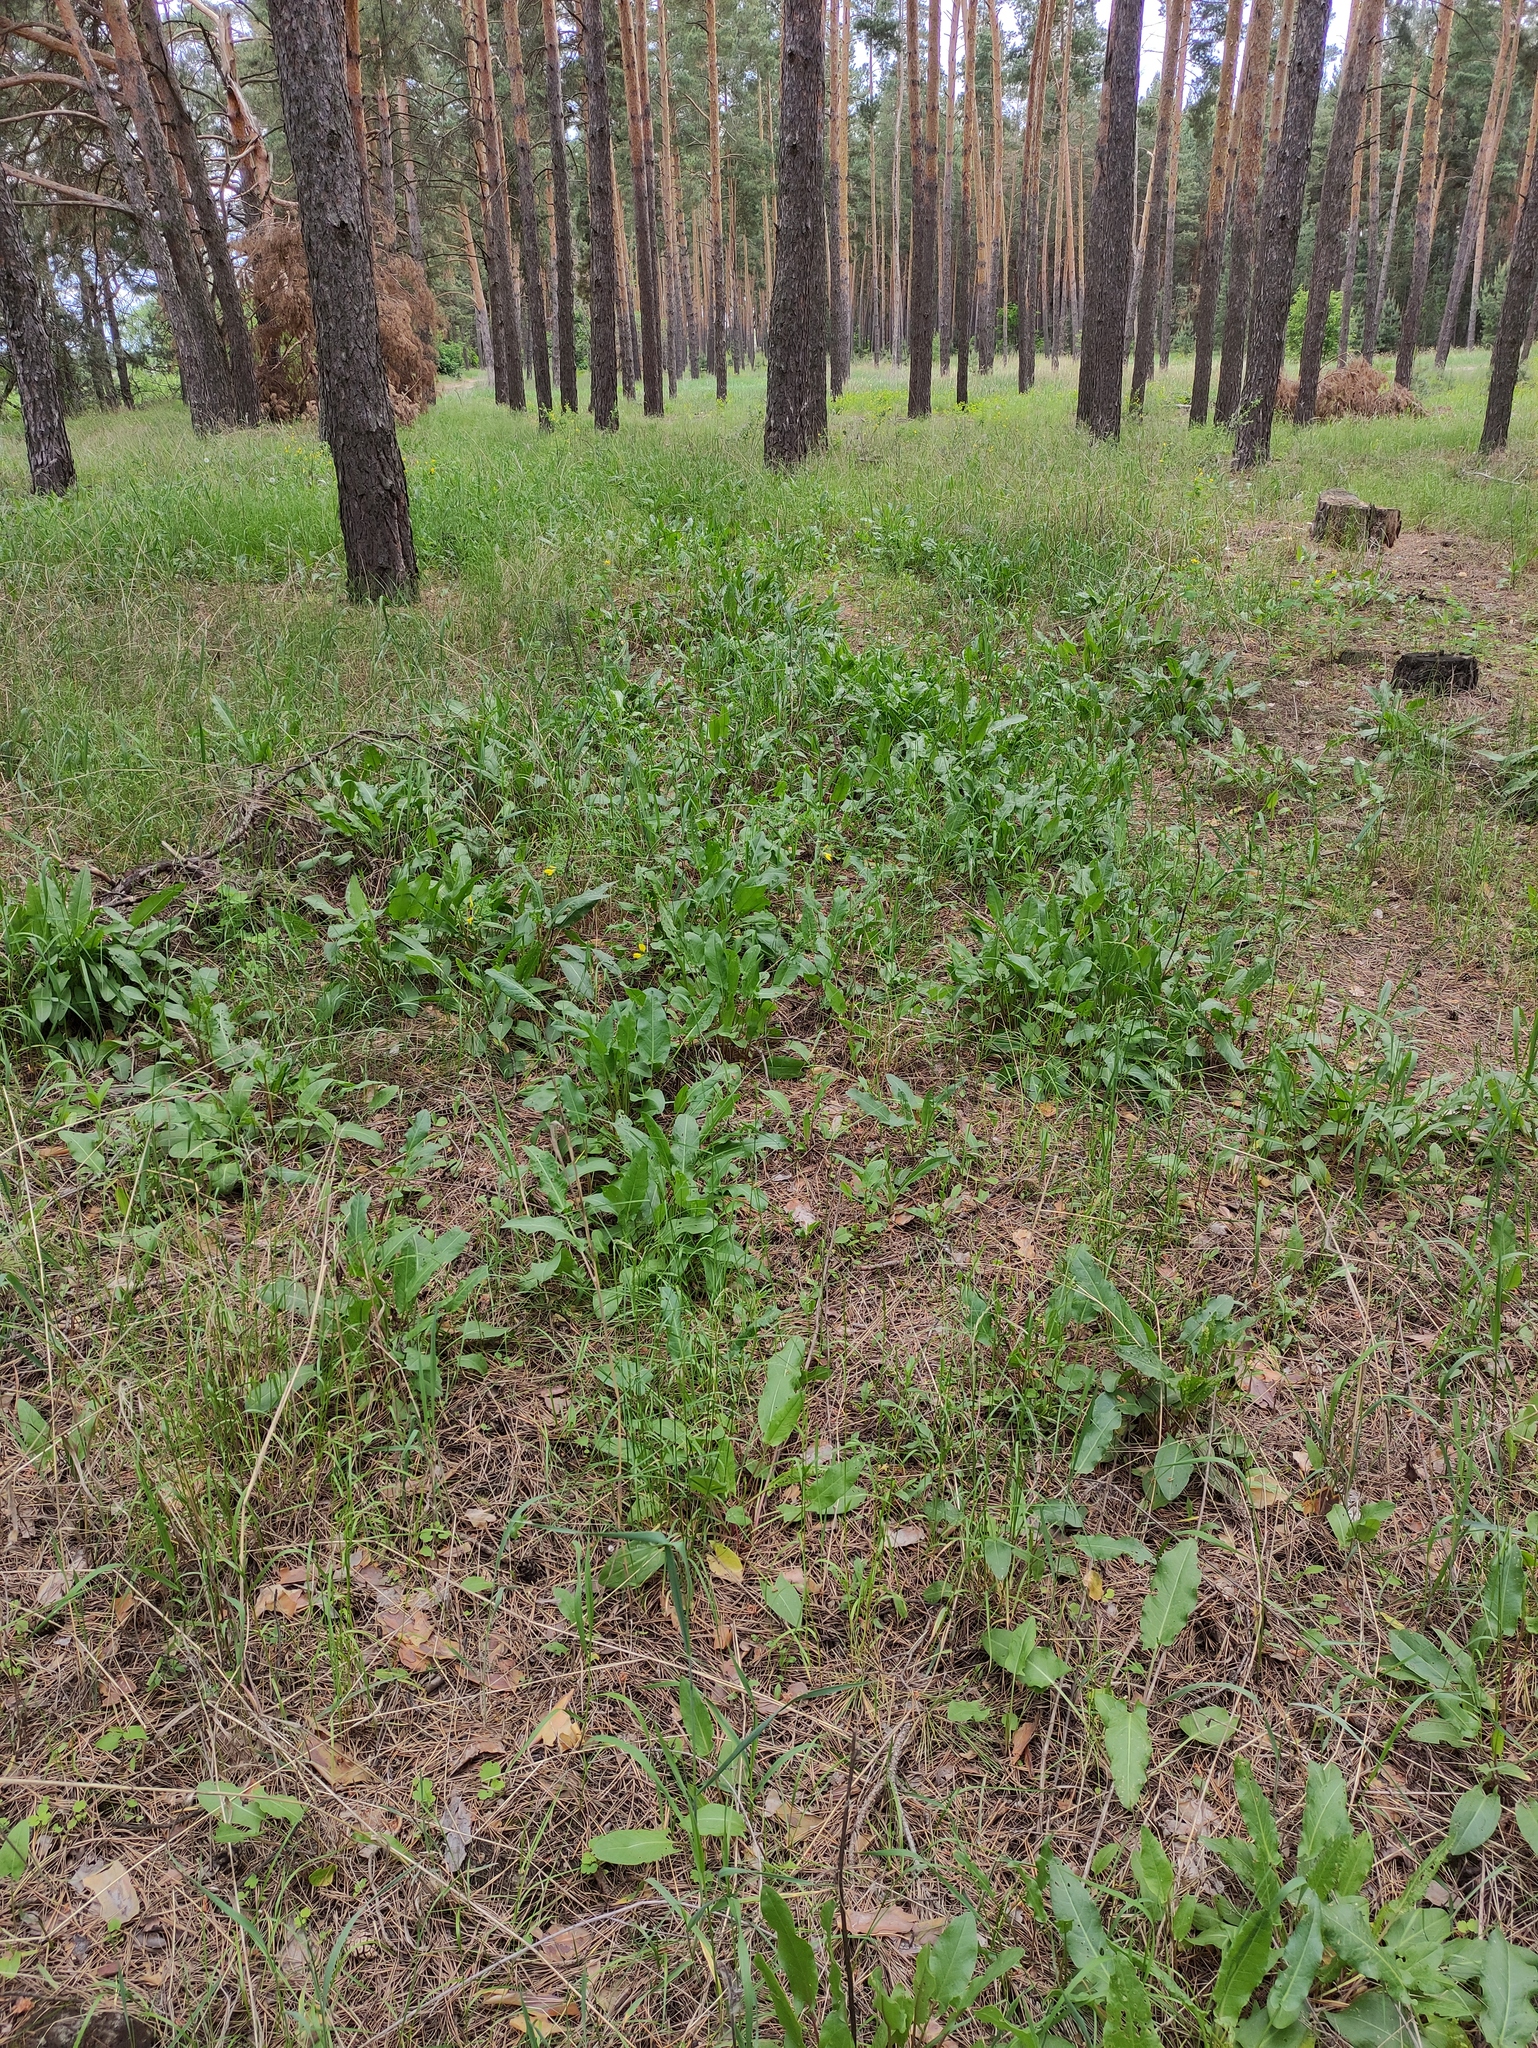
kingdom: Plantae
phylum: Tracheophyta
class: Magnoliopsida
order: Caryophyllales
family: Polygonaceae
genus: Rumex
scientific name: Rumex thyrsiflorus
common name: Garden sorrel
